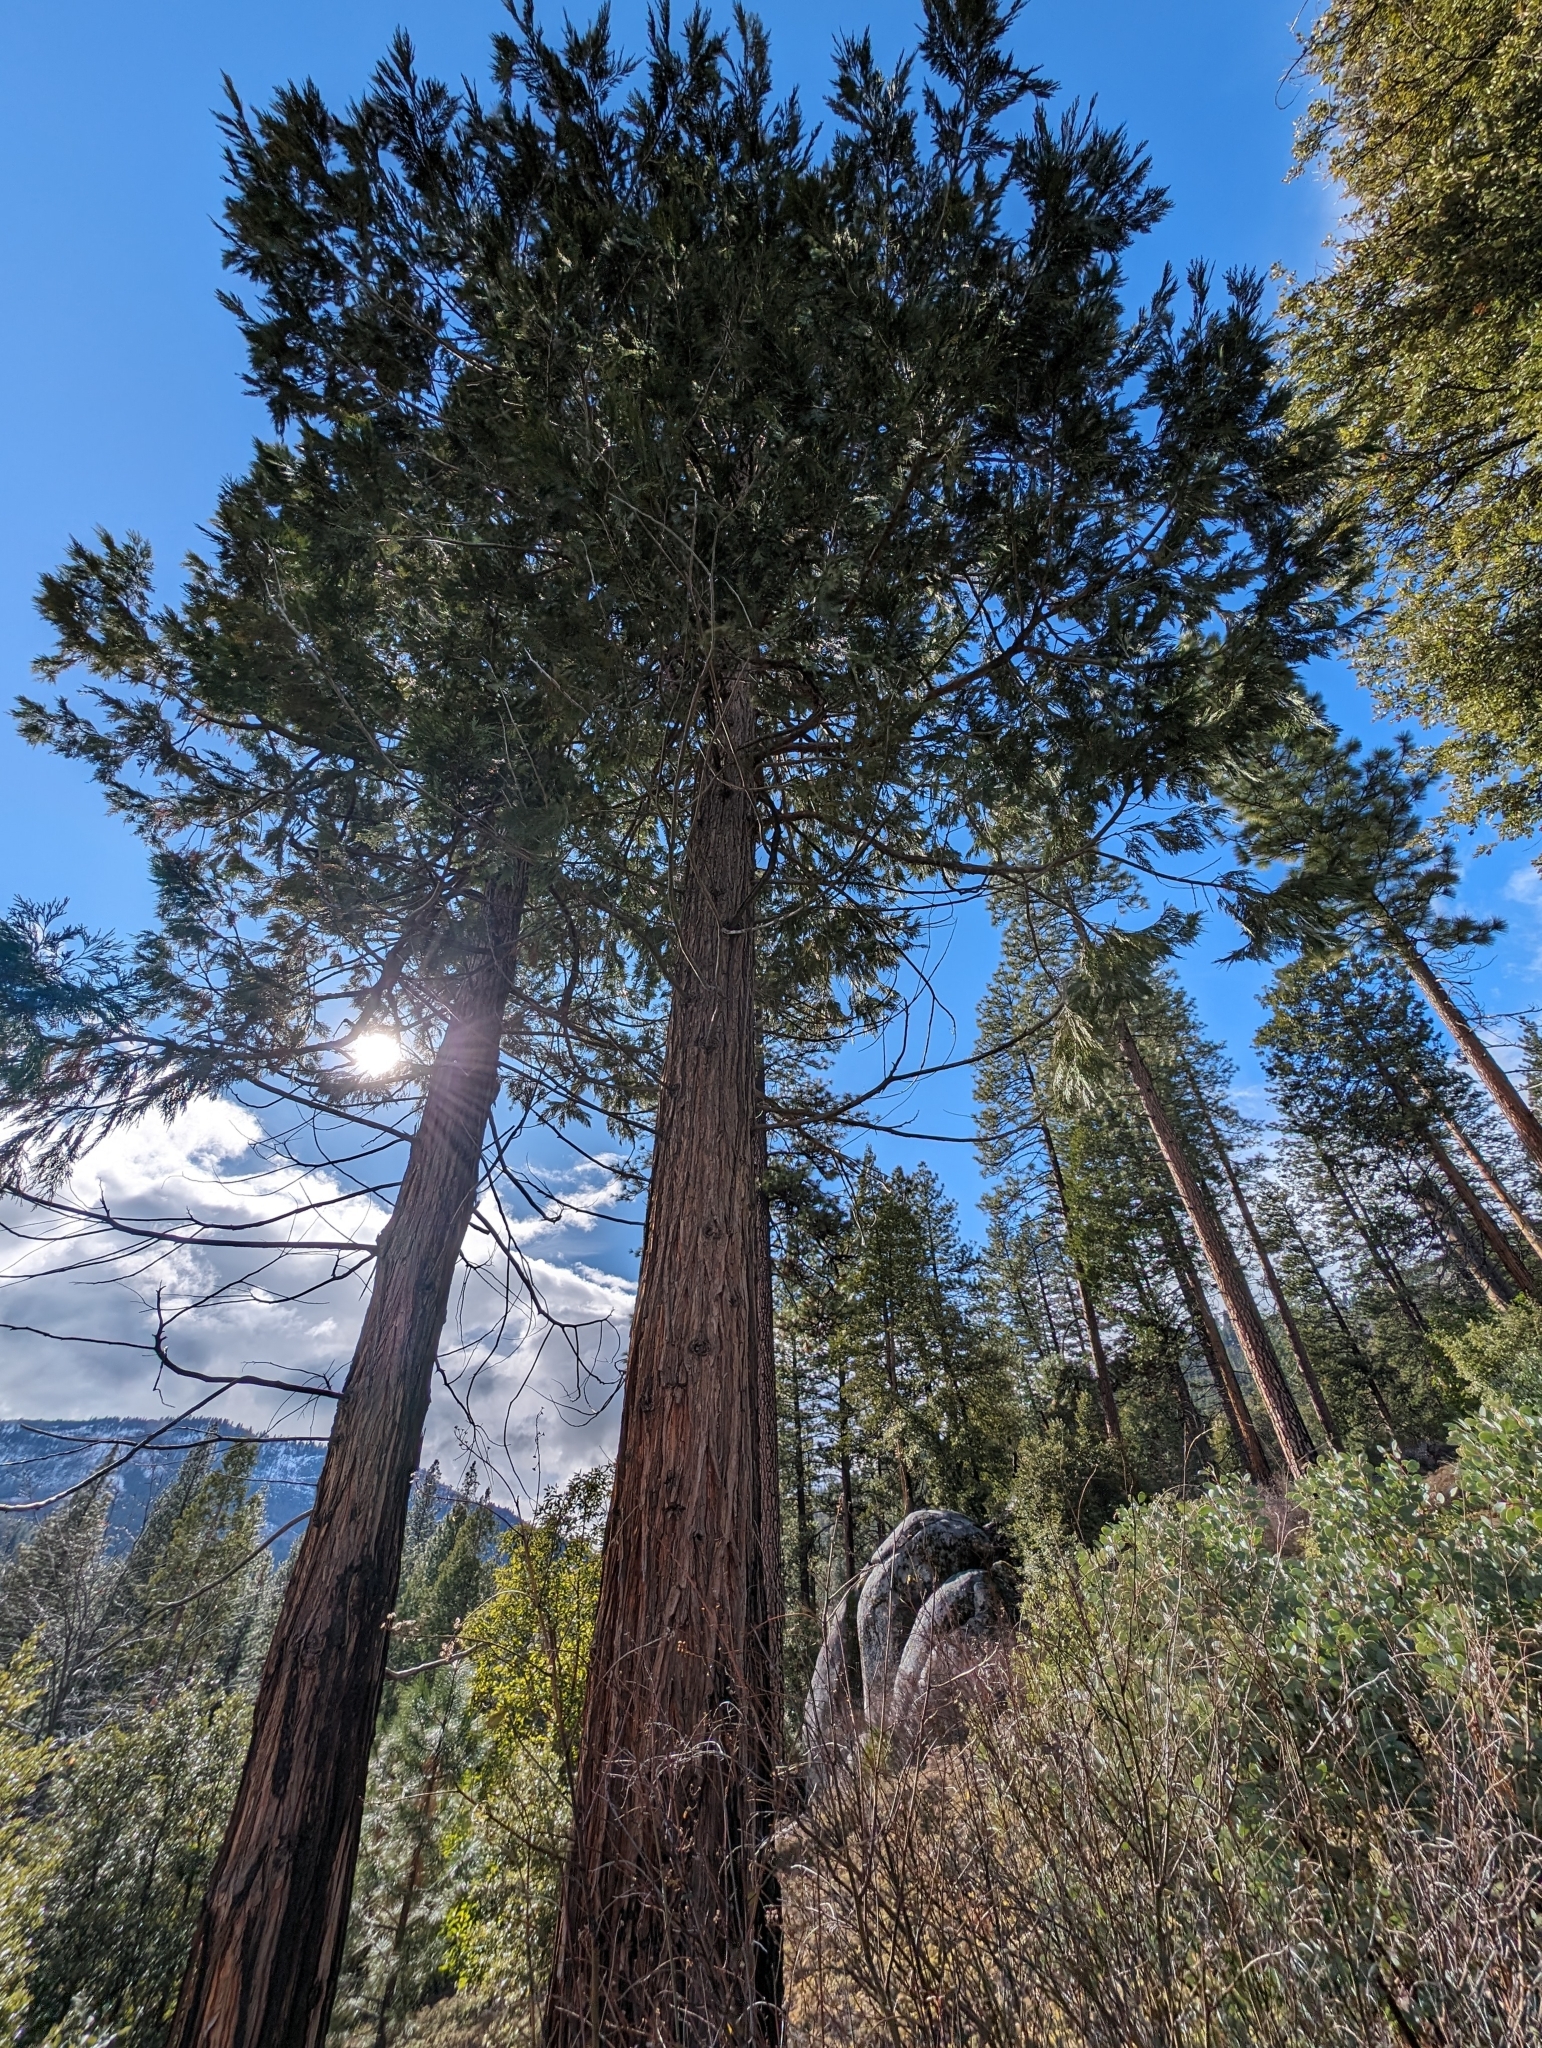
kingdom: Plantae
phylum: Tracheophyta
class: Pinopsida
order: Pinales
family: Cupressaceae
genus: Calocedrus
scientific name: Calocedrus decurrens
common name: Californian incense-cedar
